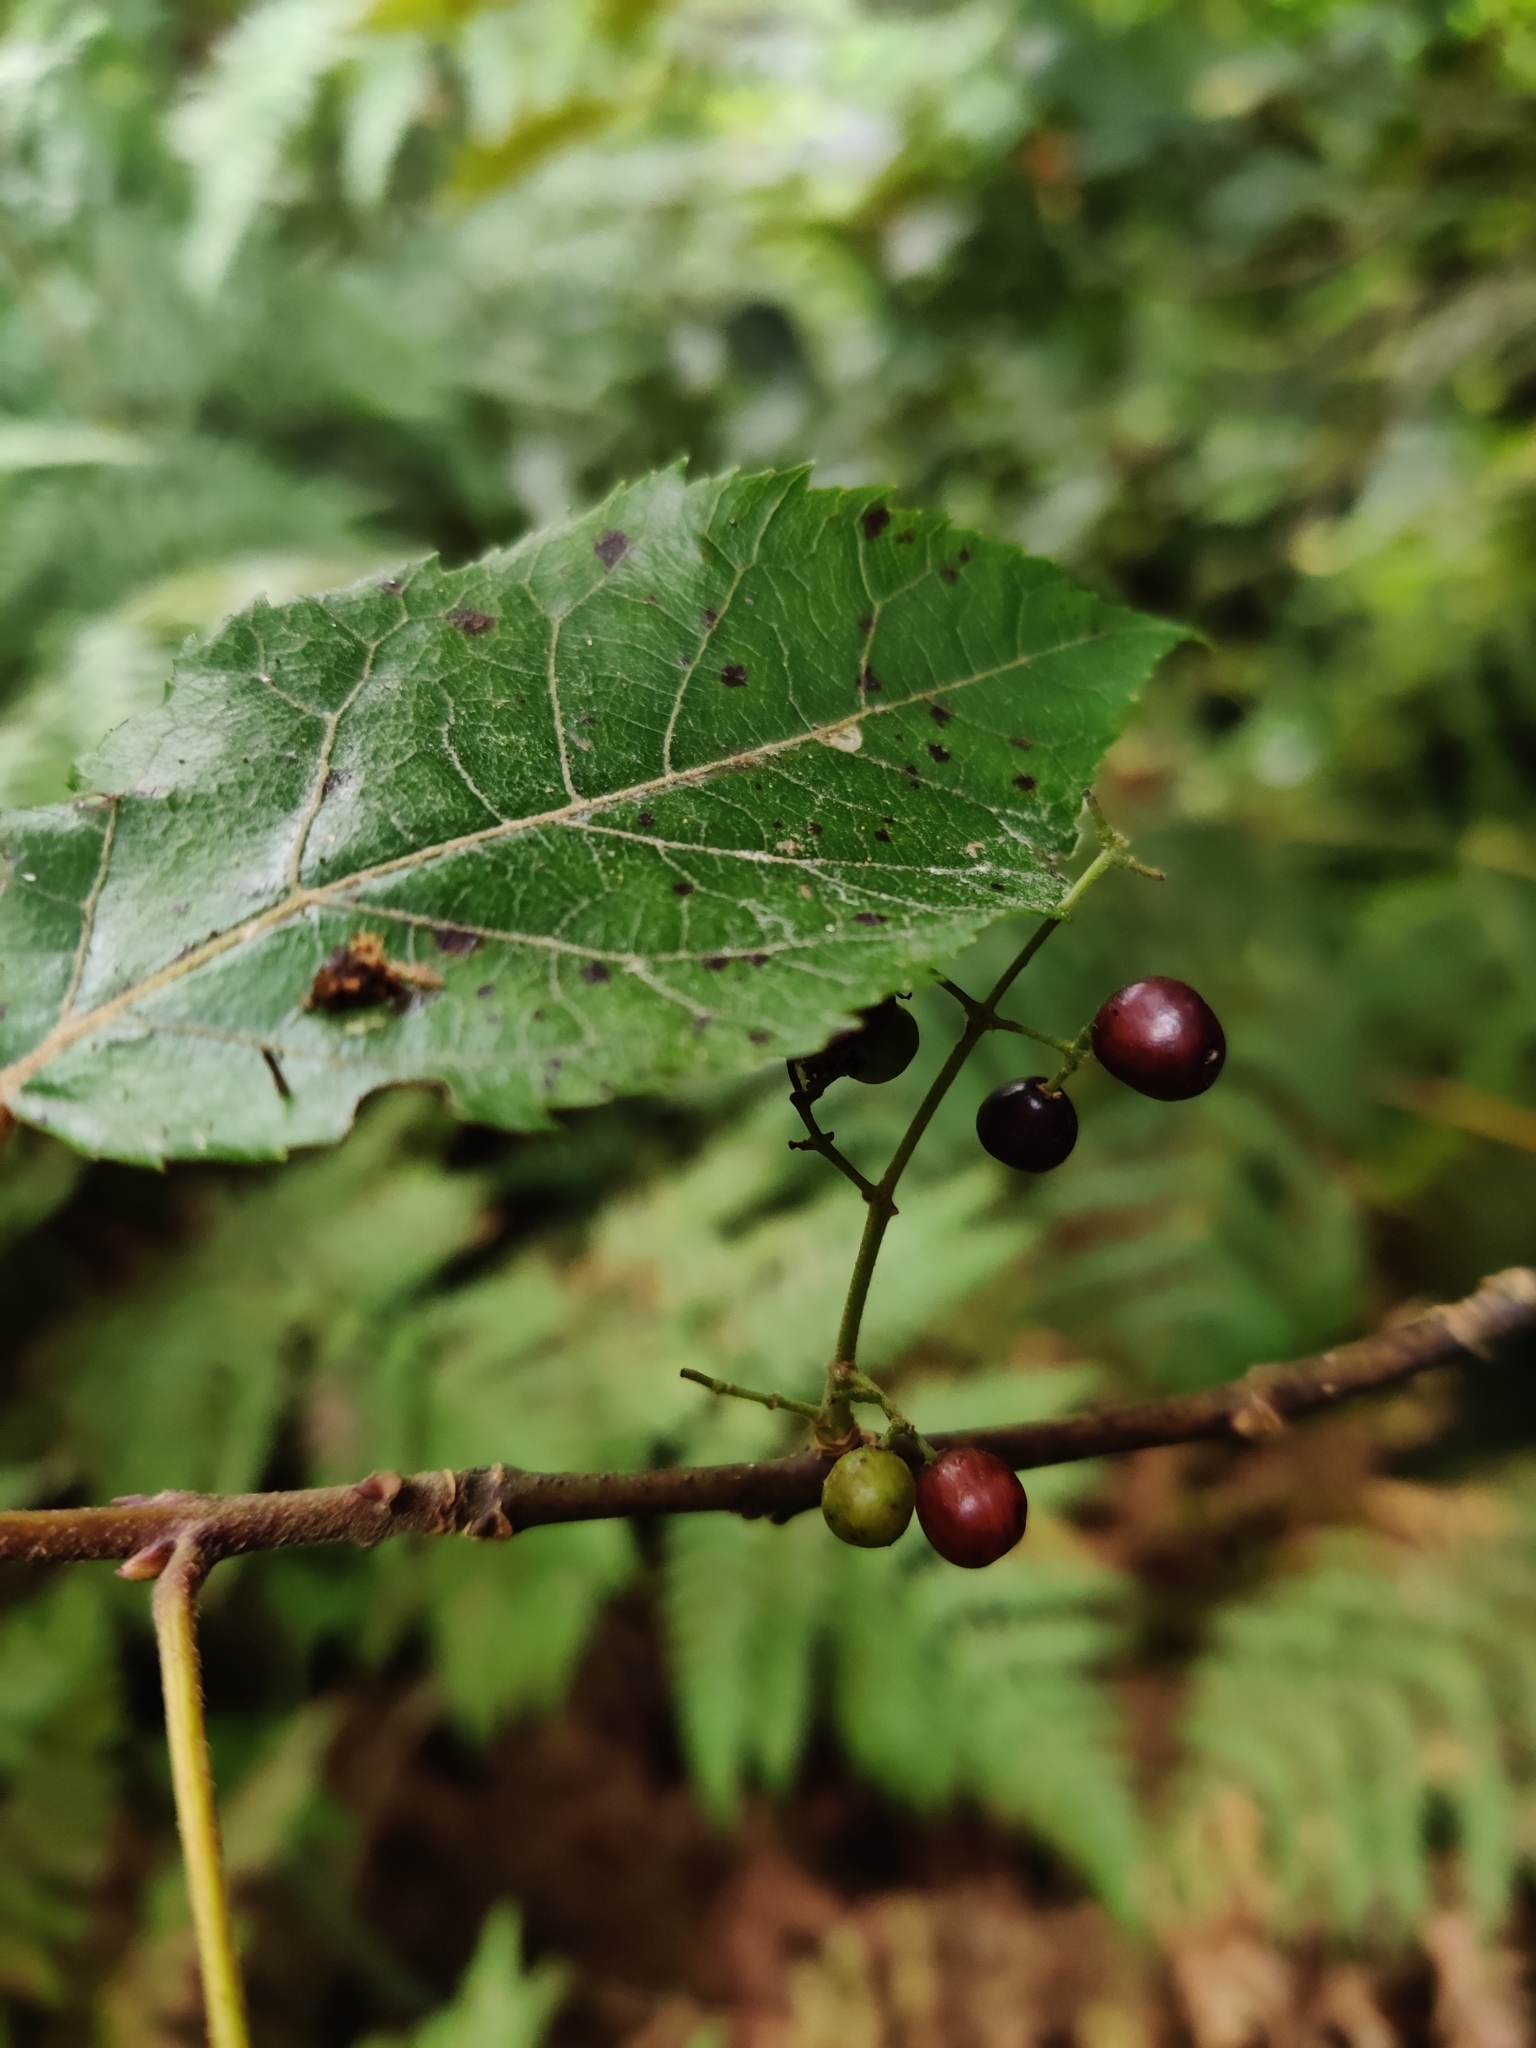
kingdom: Plantae
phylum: Tracheophyta
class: Magnoliopsida
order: Oxalidales
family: Elaeocarpaceae
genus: Aristotelia
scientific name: Aristotelia serrata
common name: New zealand wineberry
